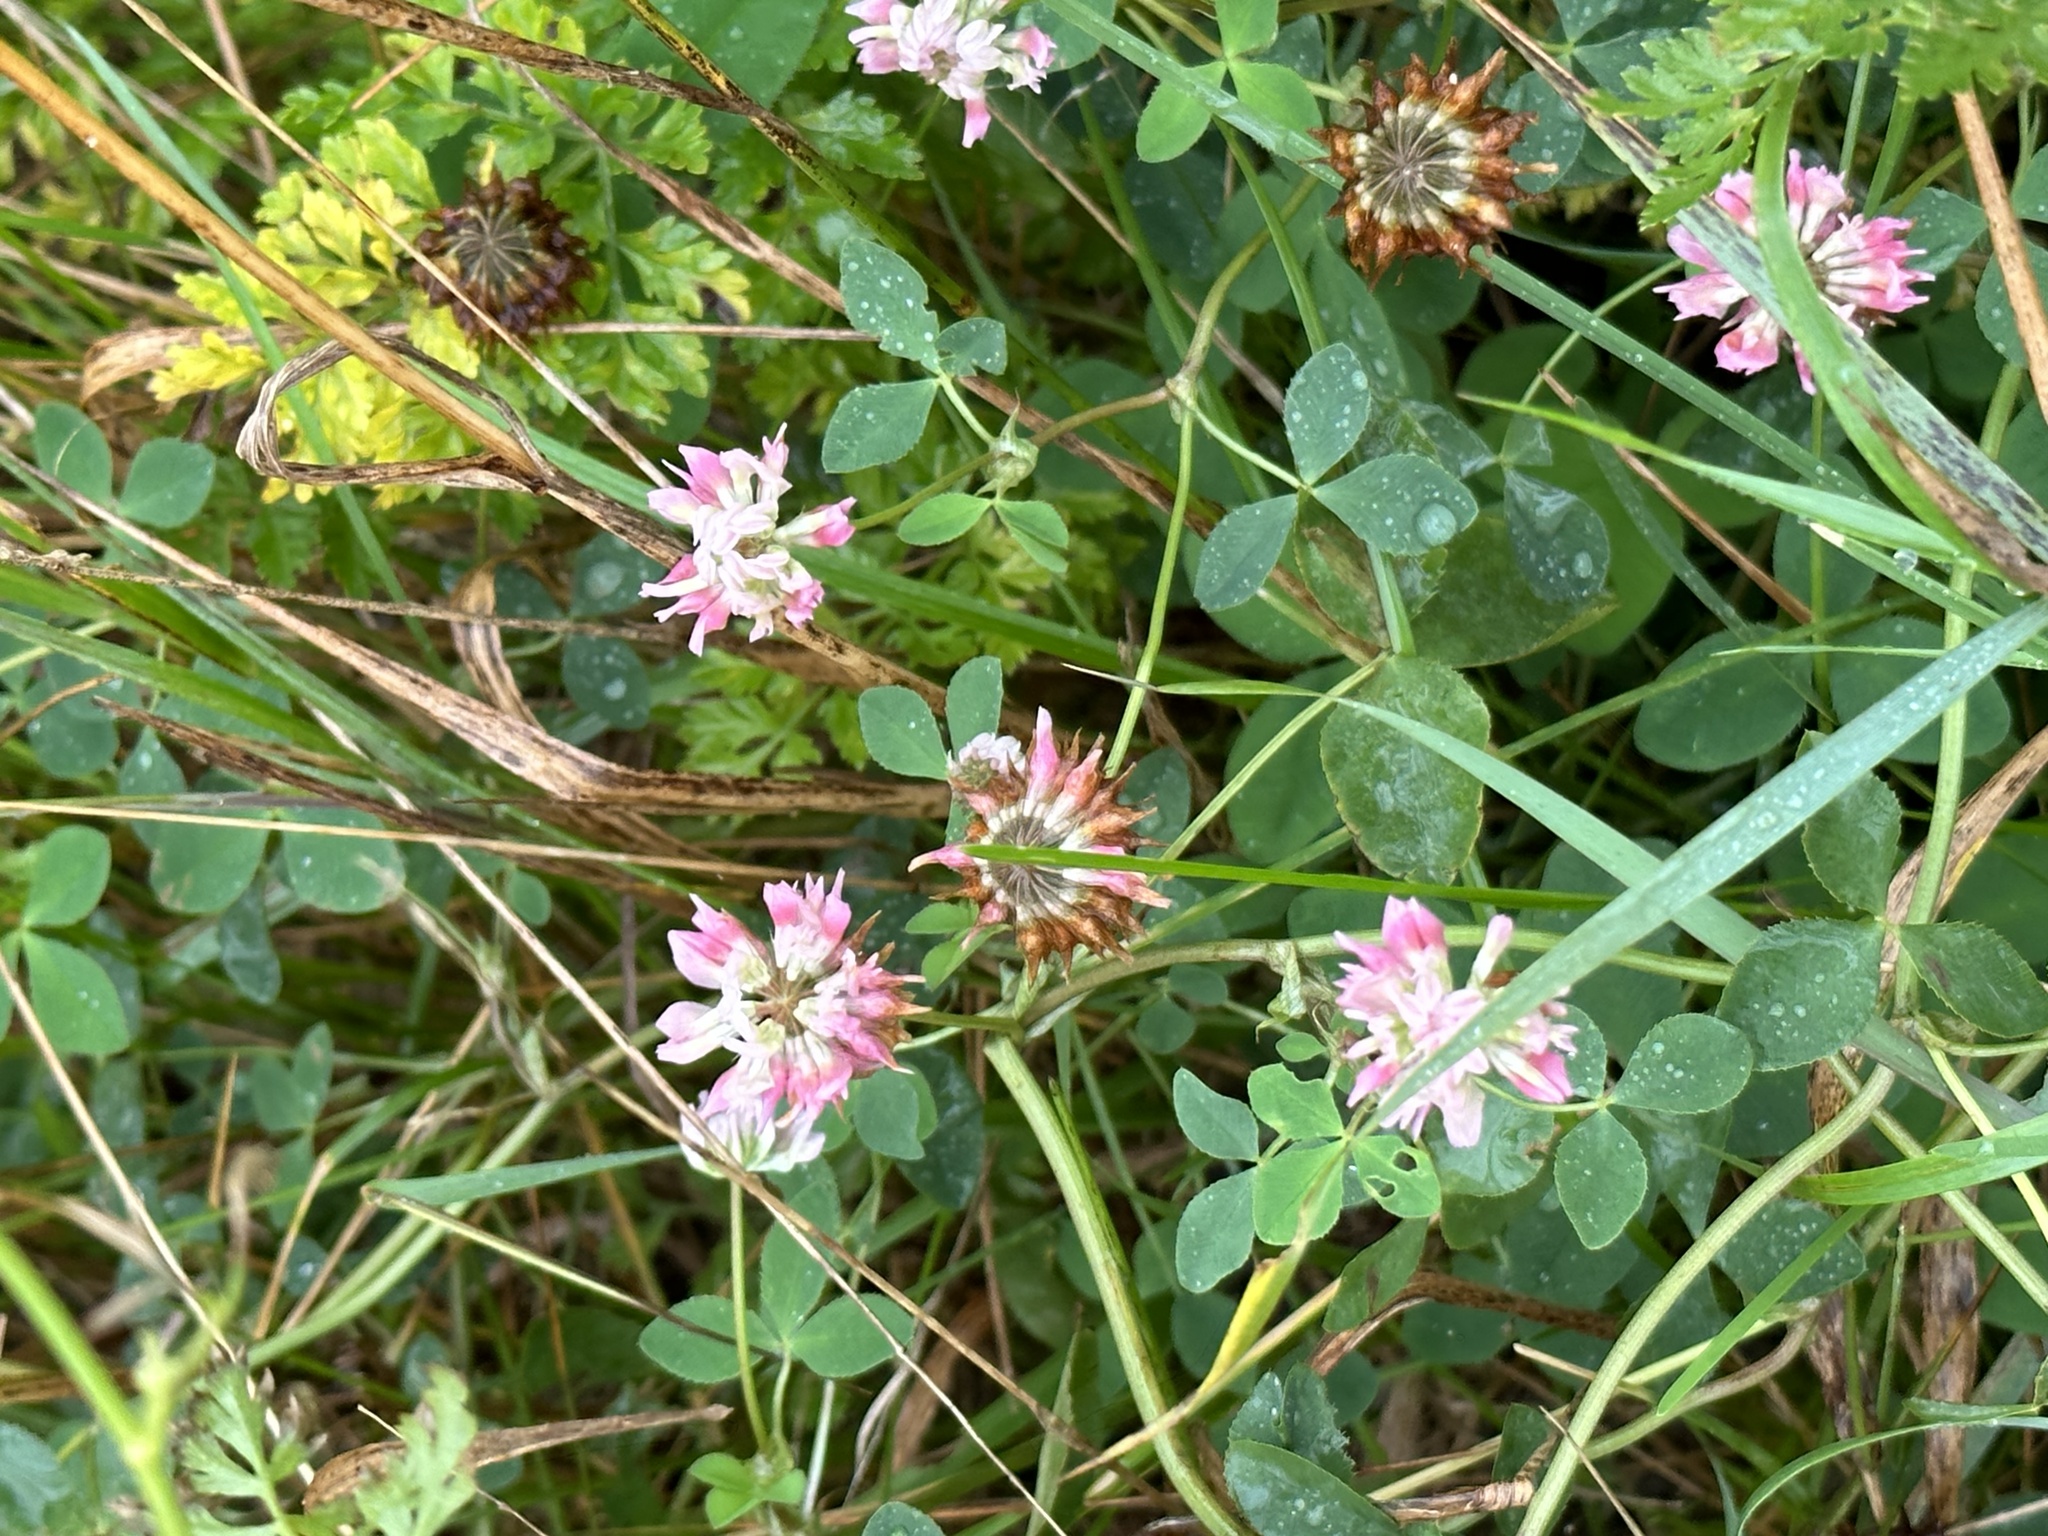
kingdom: Plantae
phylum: Tracheophyta
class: Magnoliopsida
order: Fabales
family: Fabaceae
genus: Trifolium
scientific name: Trifolium hybridum
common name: Alsike clover
